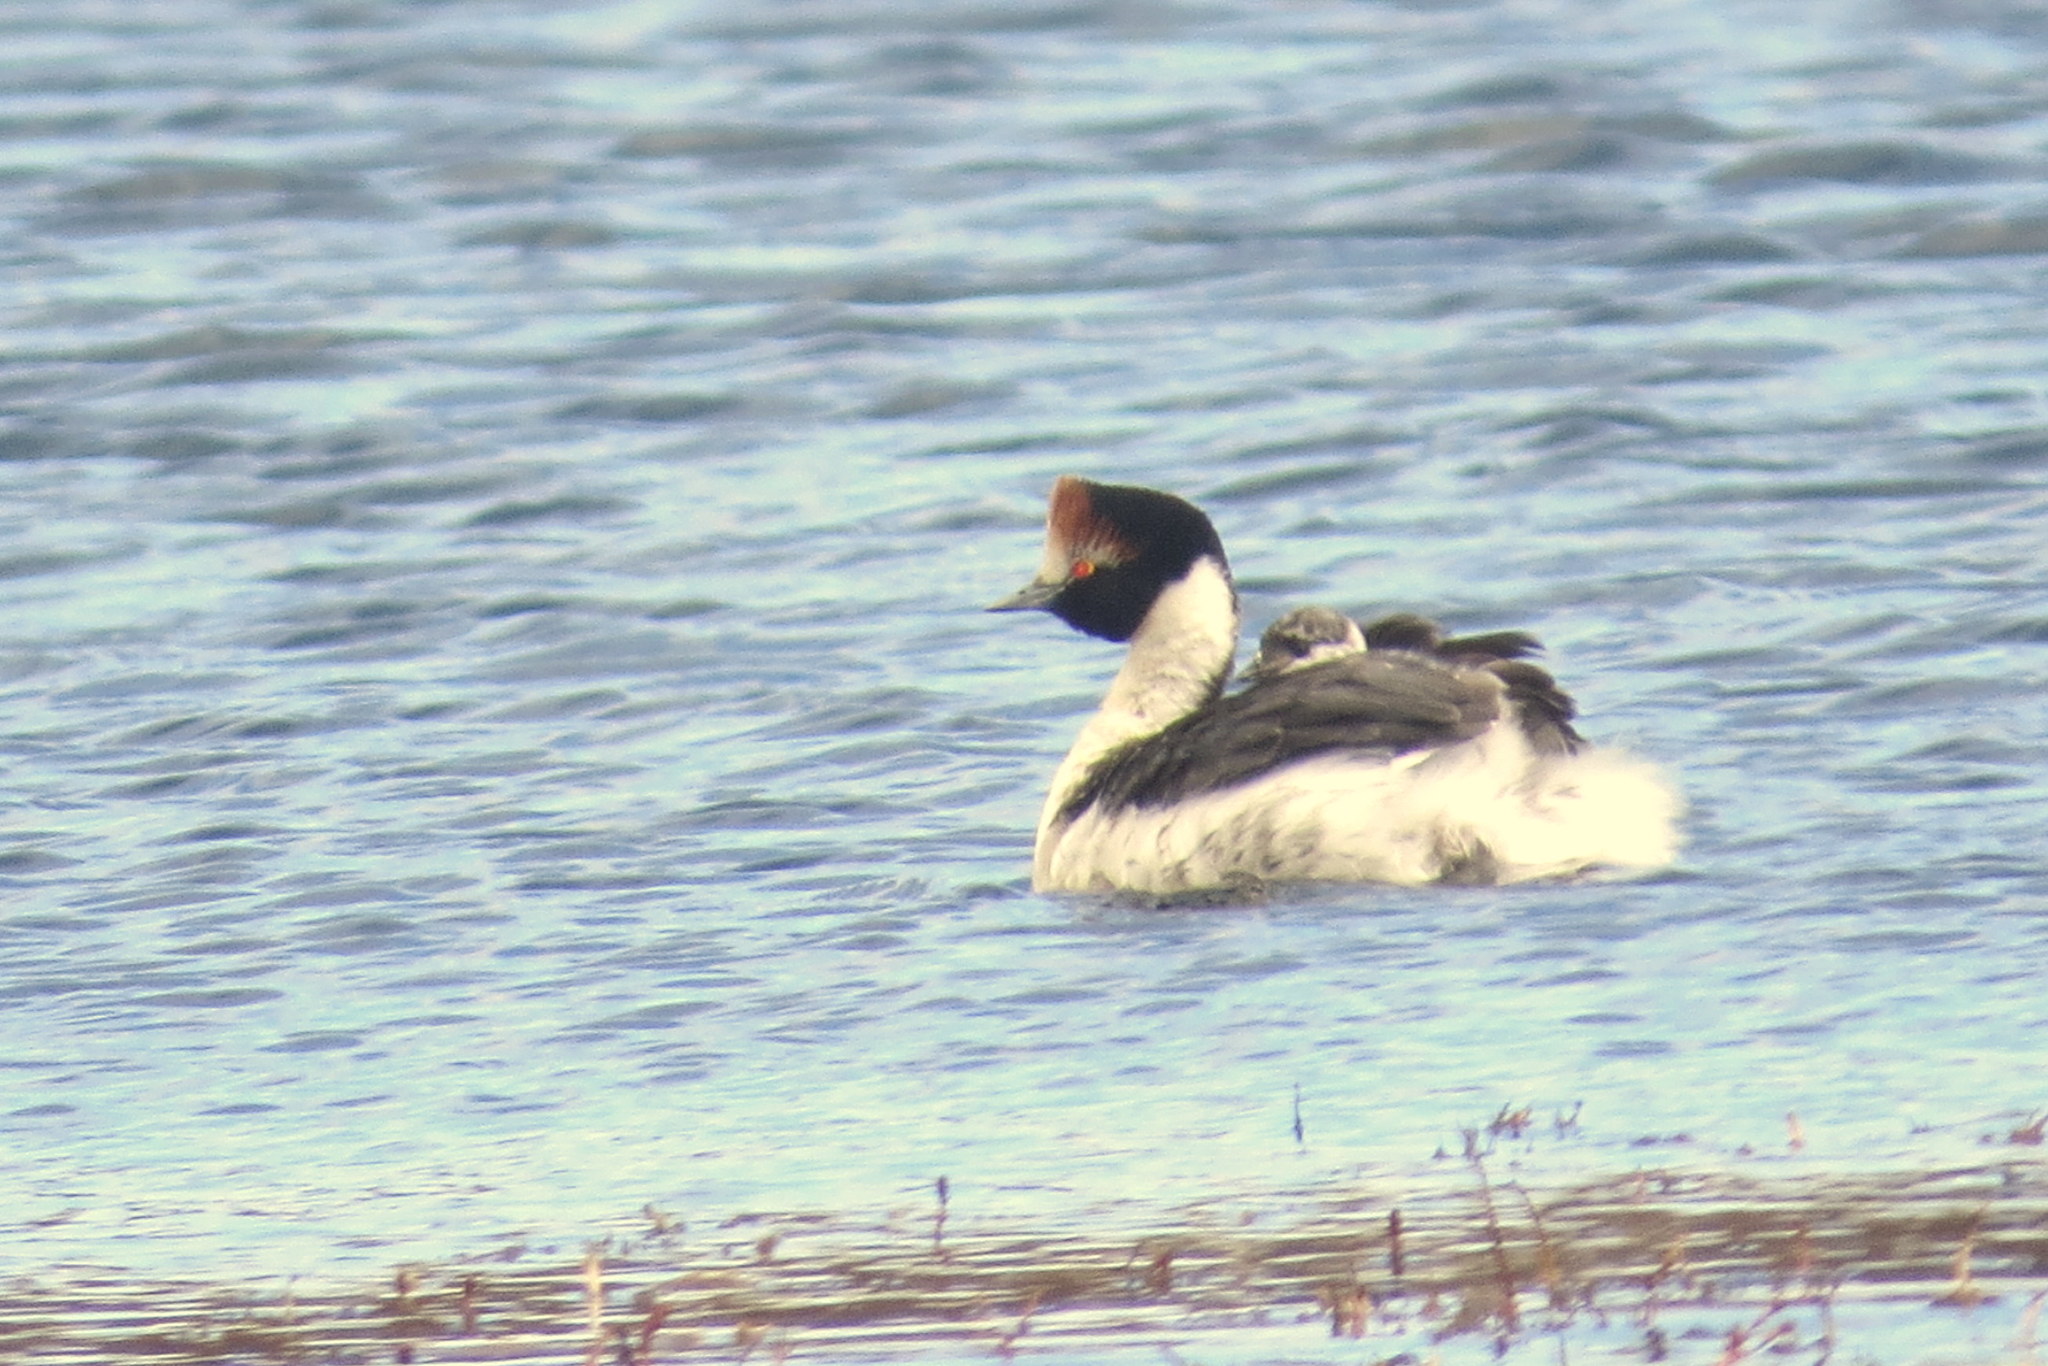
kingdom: Animalia
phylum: Chordata
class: Aves
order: Podicipediformes
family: Podicipedidae
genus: Podiceps
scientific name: Podiceps gallardoi
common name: Hooded grebe
